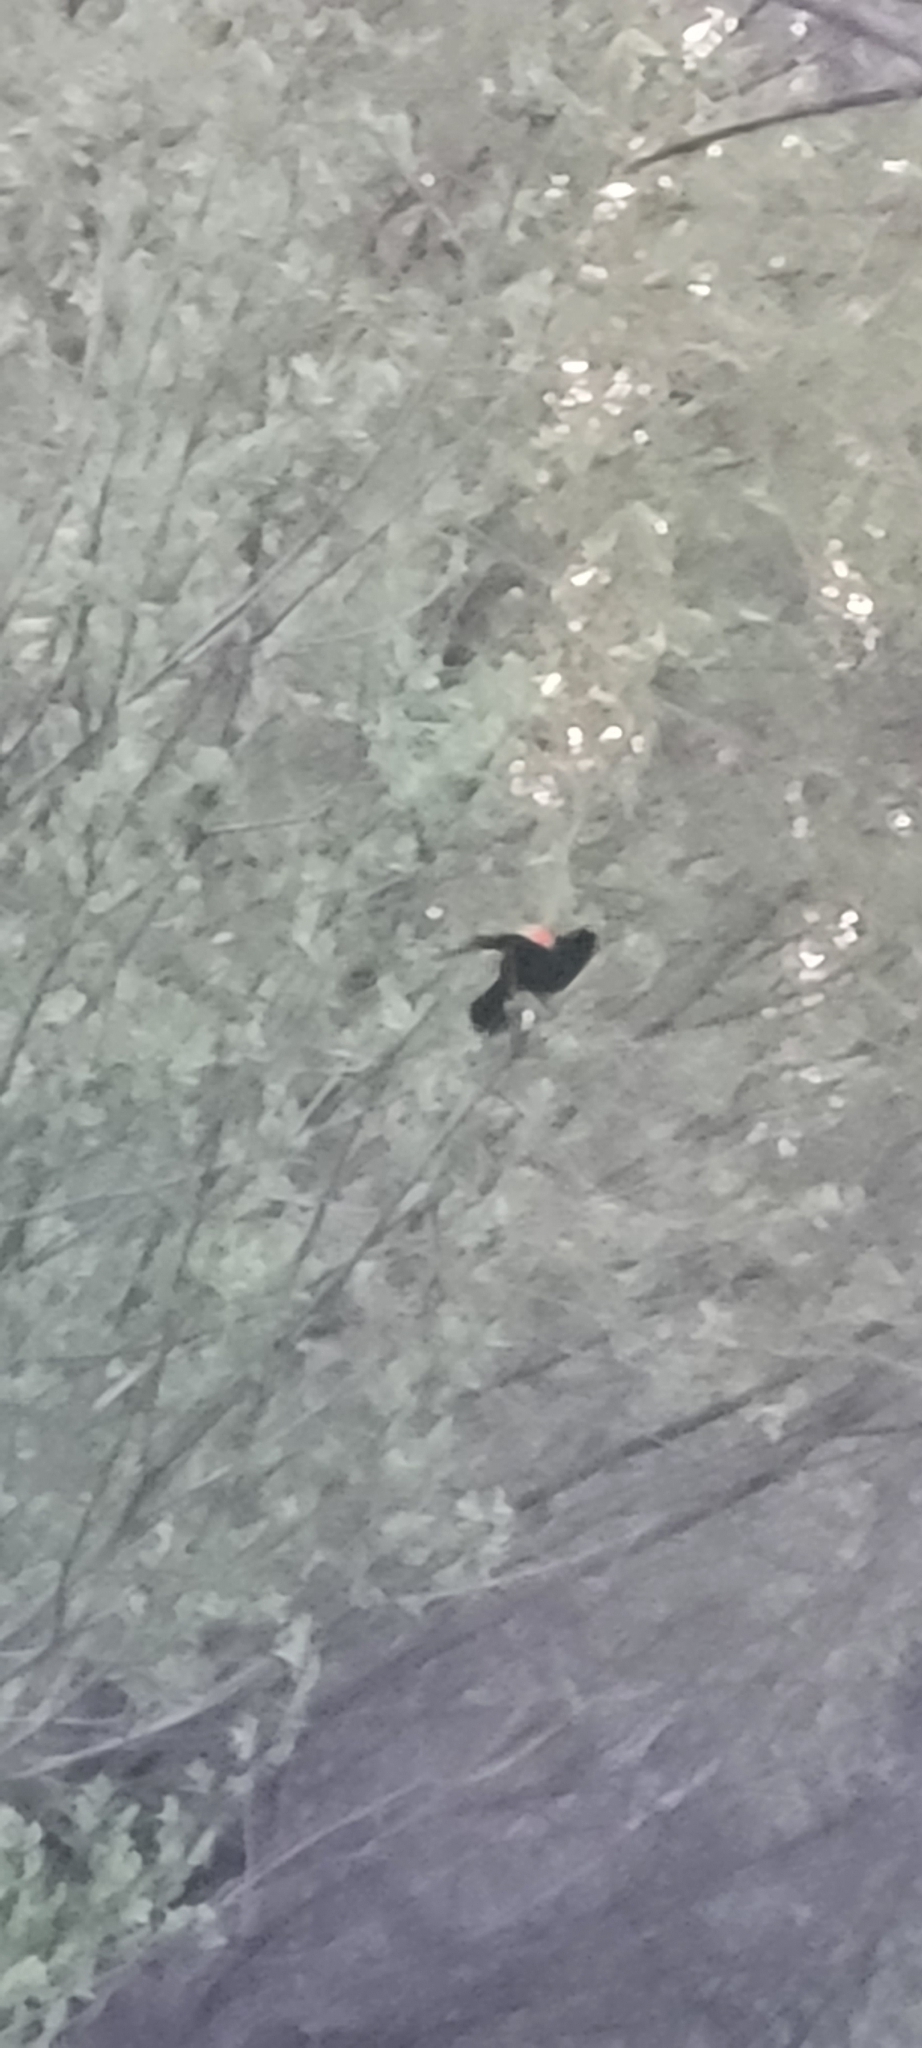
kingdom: Animalia
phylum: Chordata
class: Aves
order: Passeriformes
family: Icteridae
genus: Agelaius
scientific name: Agelaius phoeniceus
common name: Red-winged blackbird
